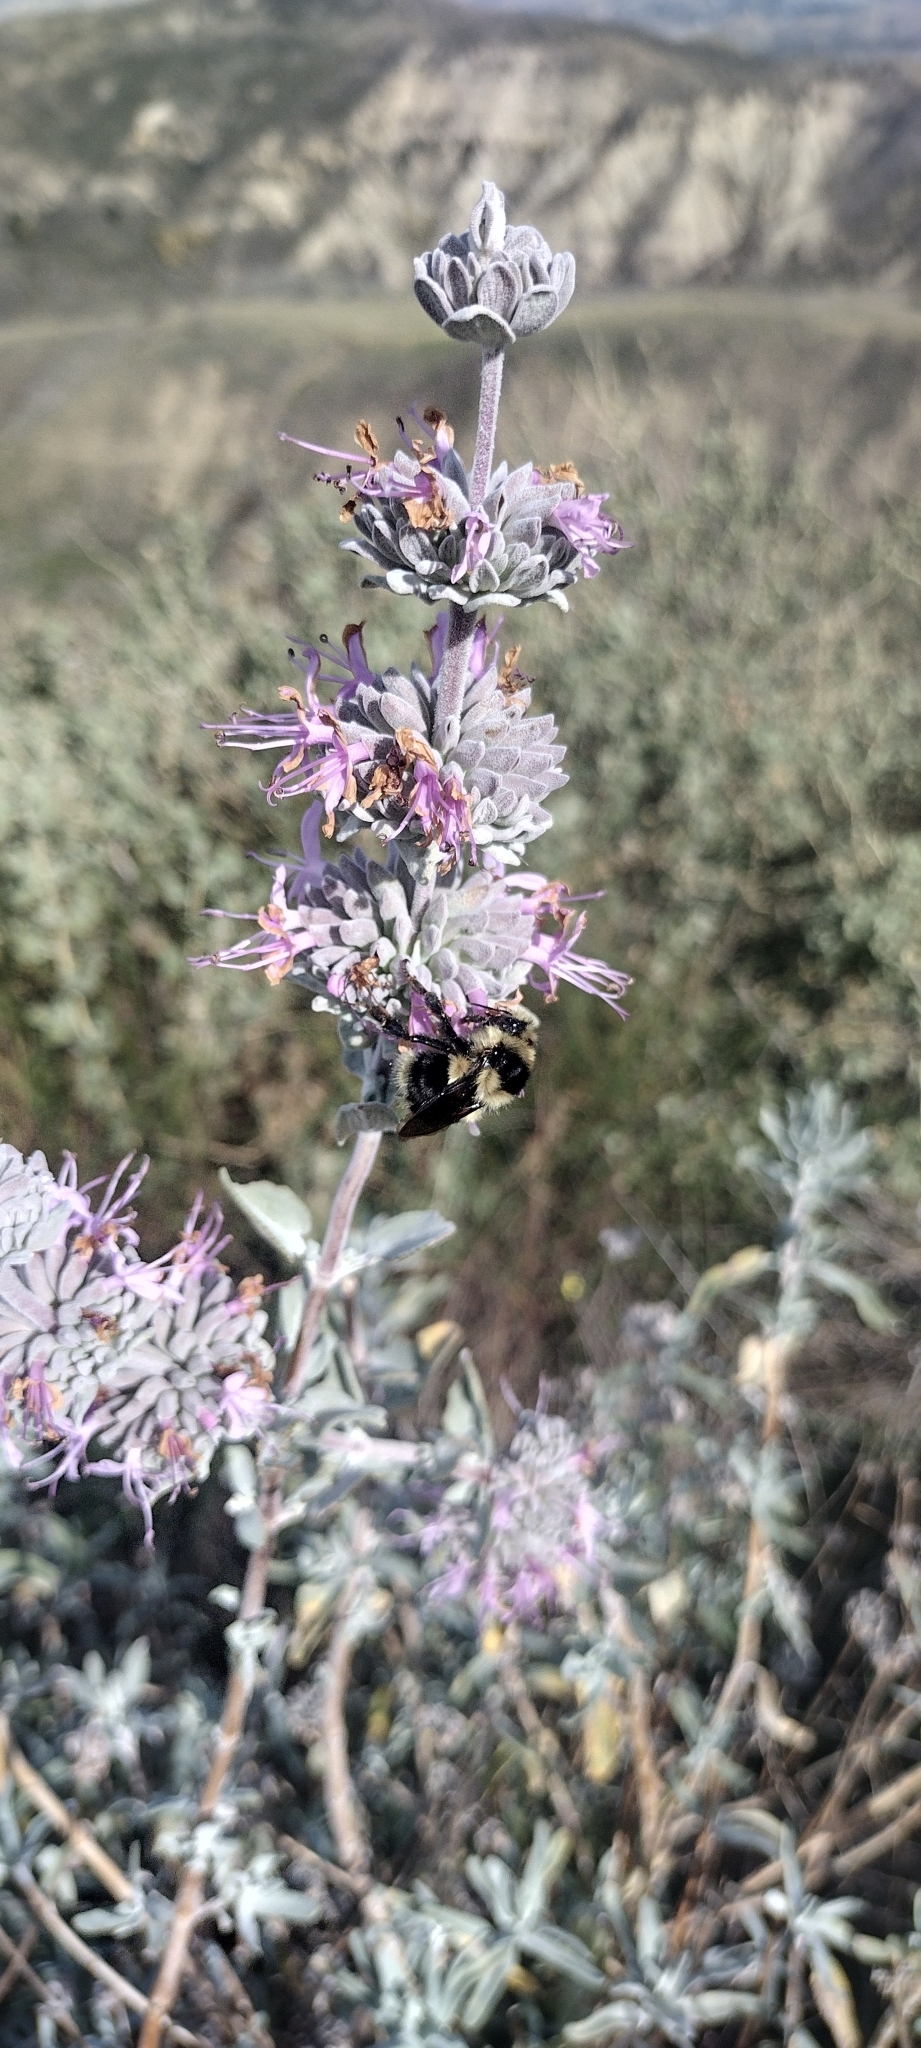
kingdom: Animalia
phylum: Arthropoda
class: Insecta
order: Hymenoptera
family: Apidae
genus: Bombus
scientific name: Bombus melanopygus
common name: Black tail bumble bee
